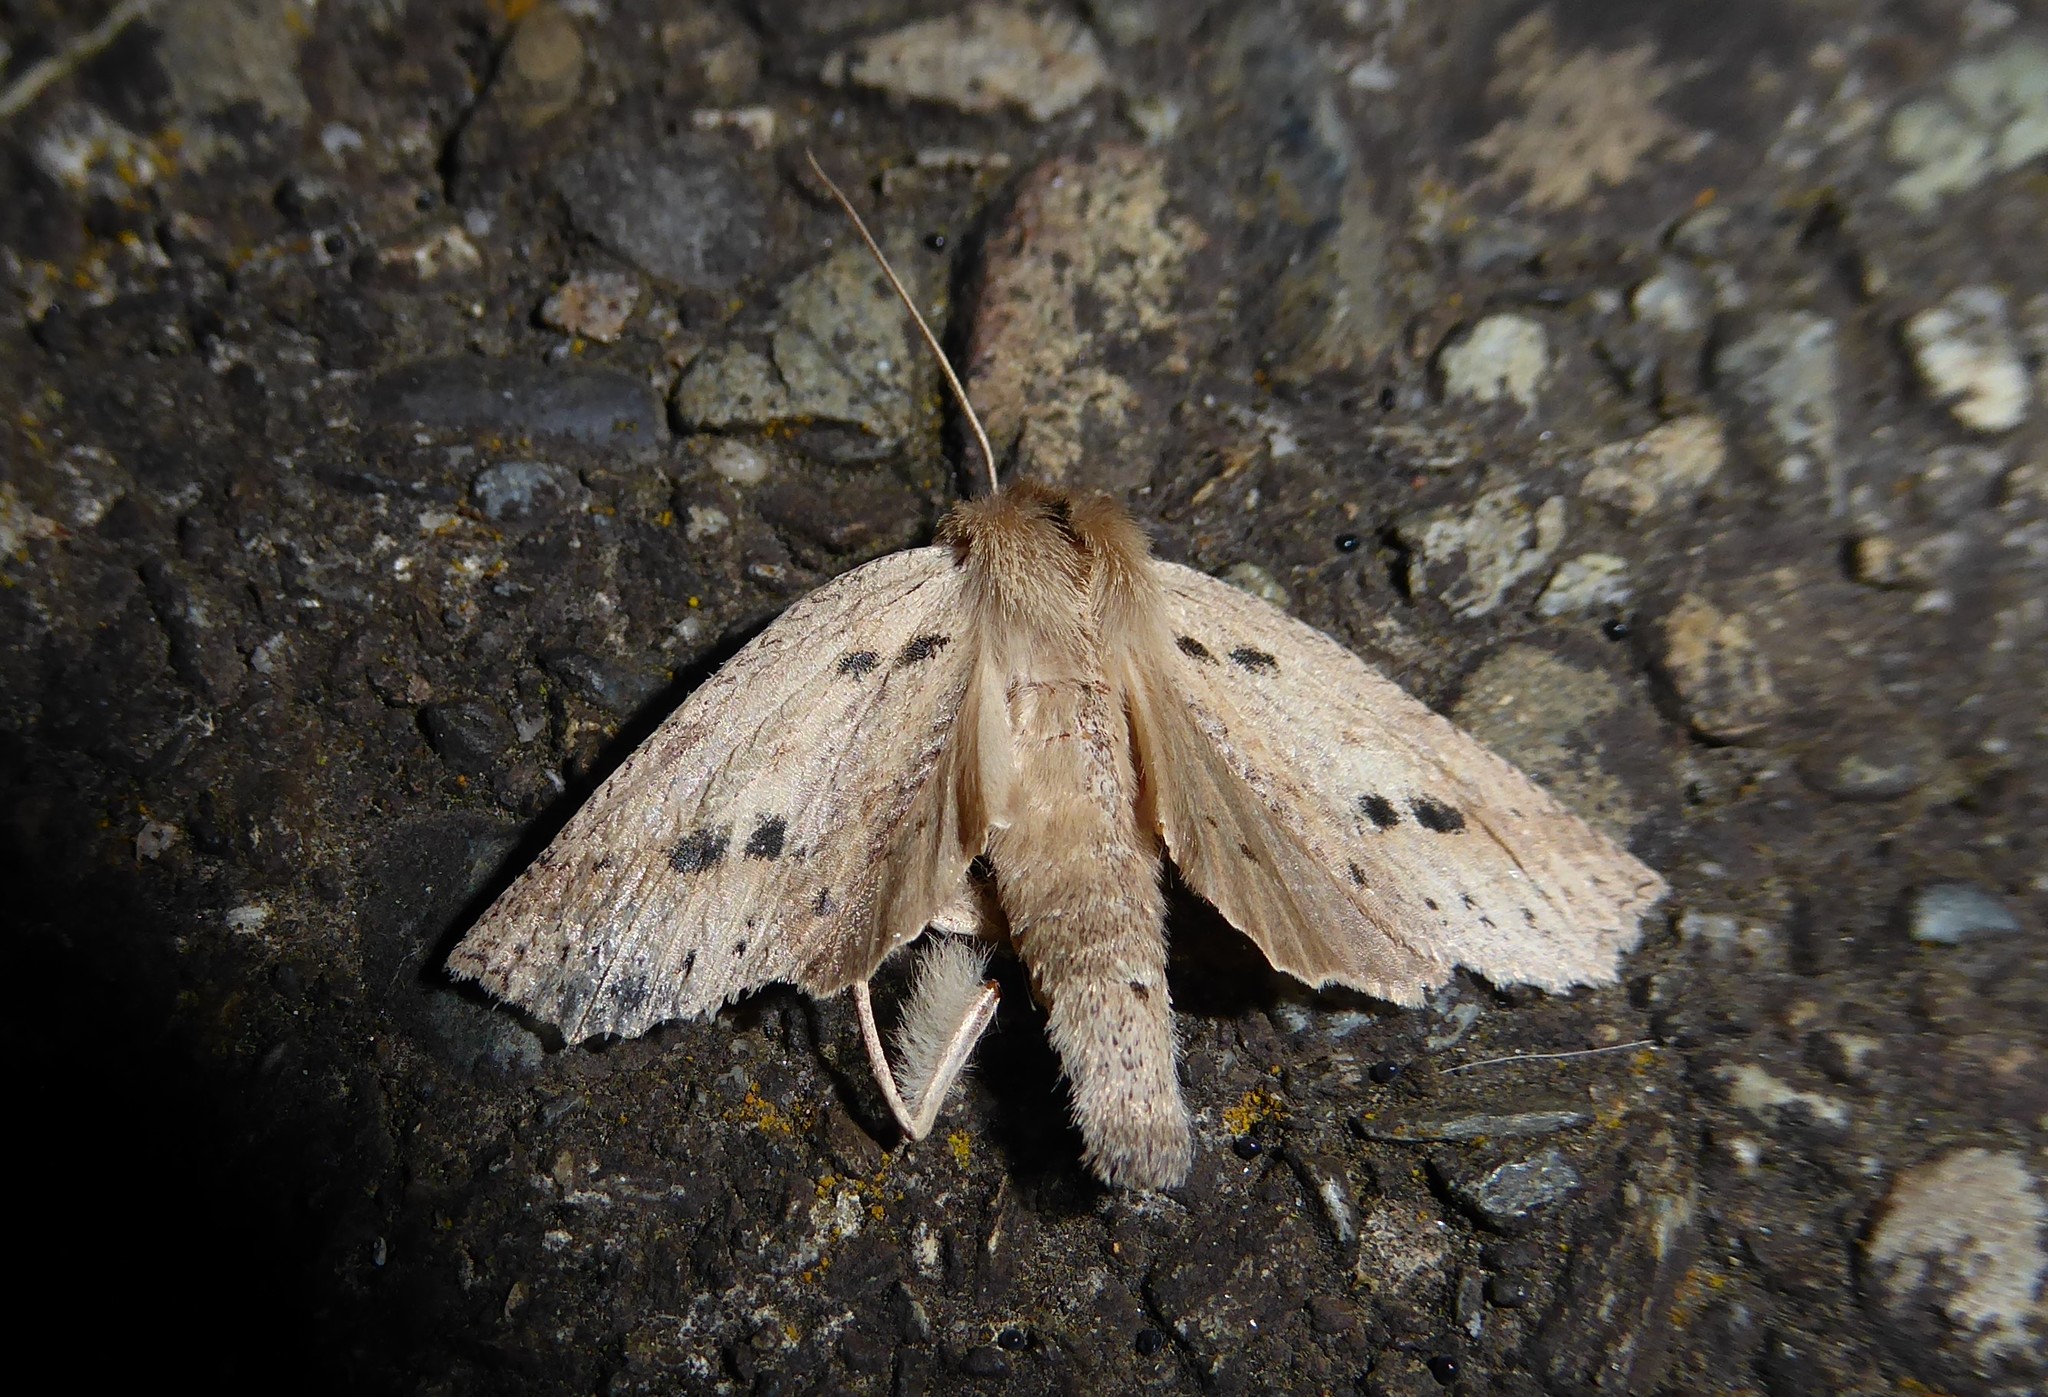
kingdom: Animalia
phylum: Arthropoda
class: Insecta
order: Lepidoptera
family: Geometridae
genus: Declana
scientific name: Declana leptomera
